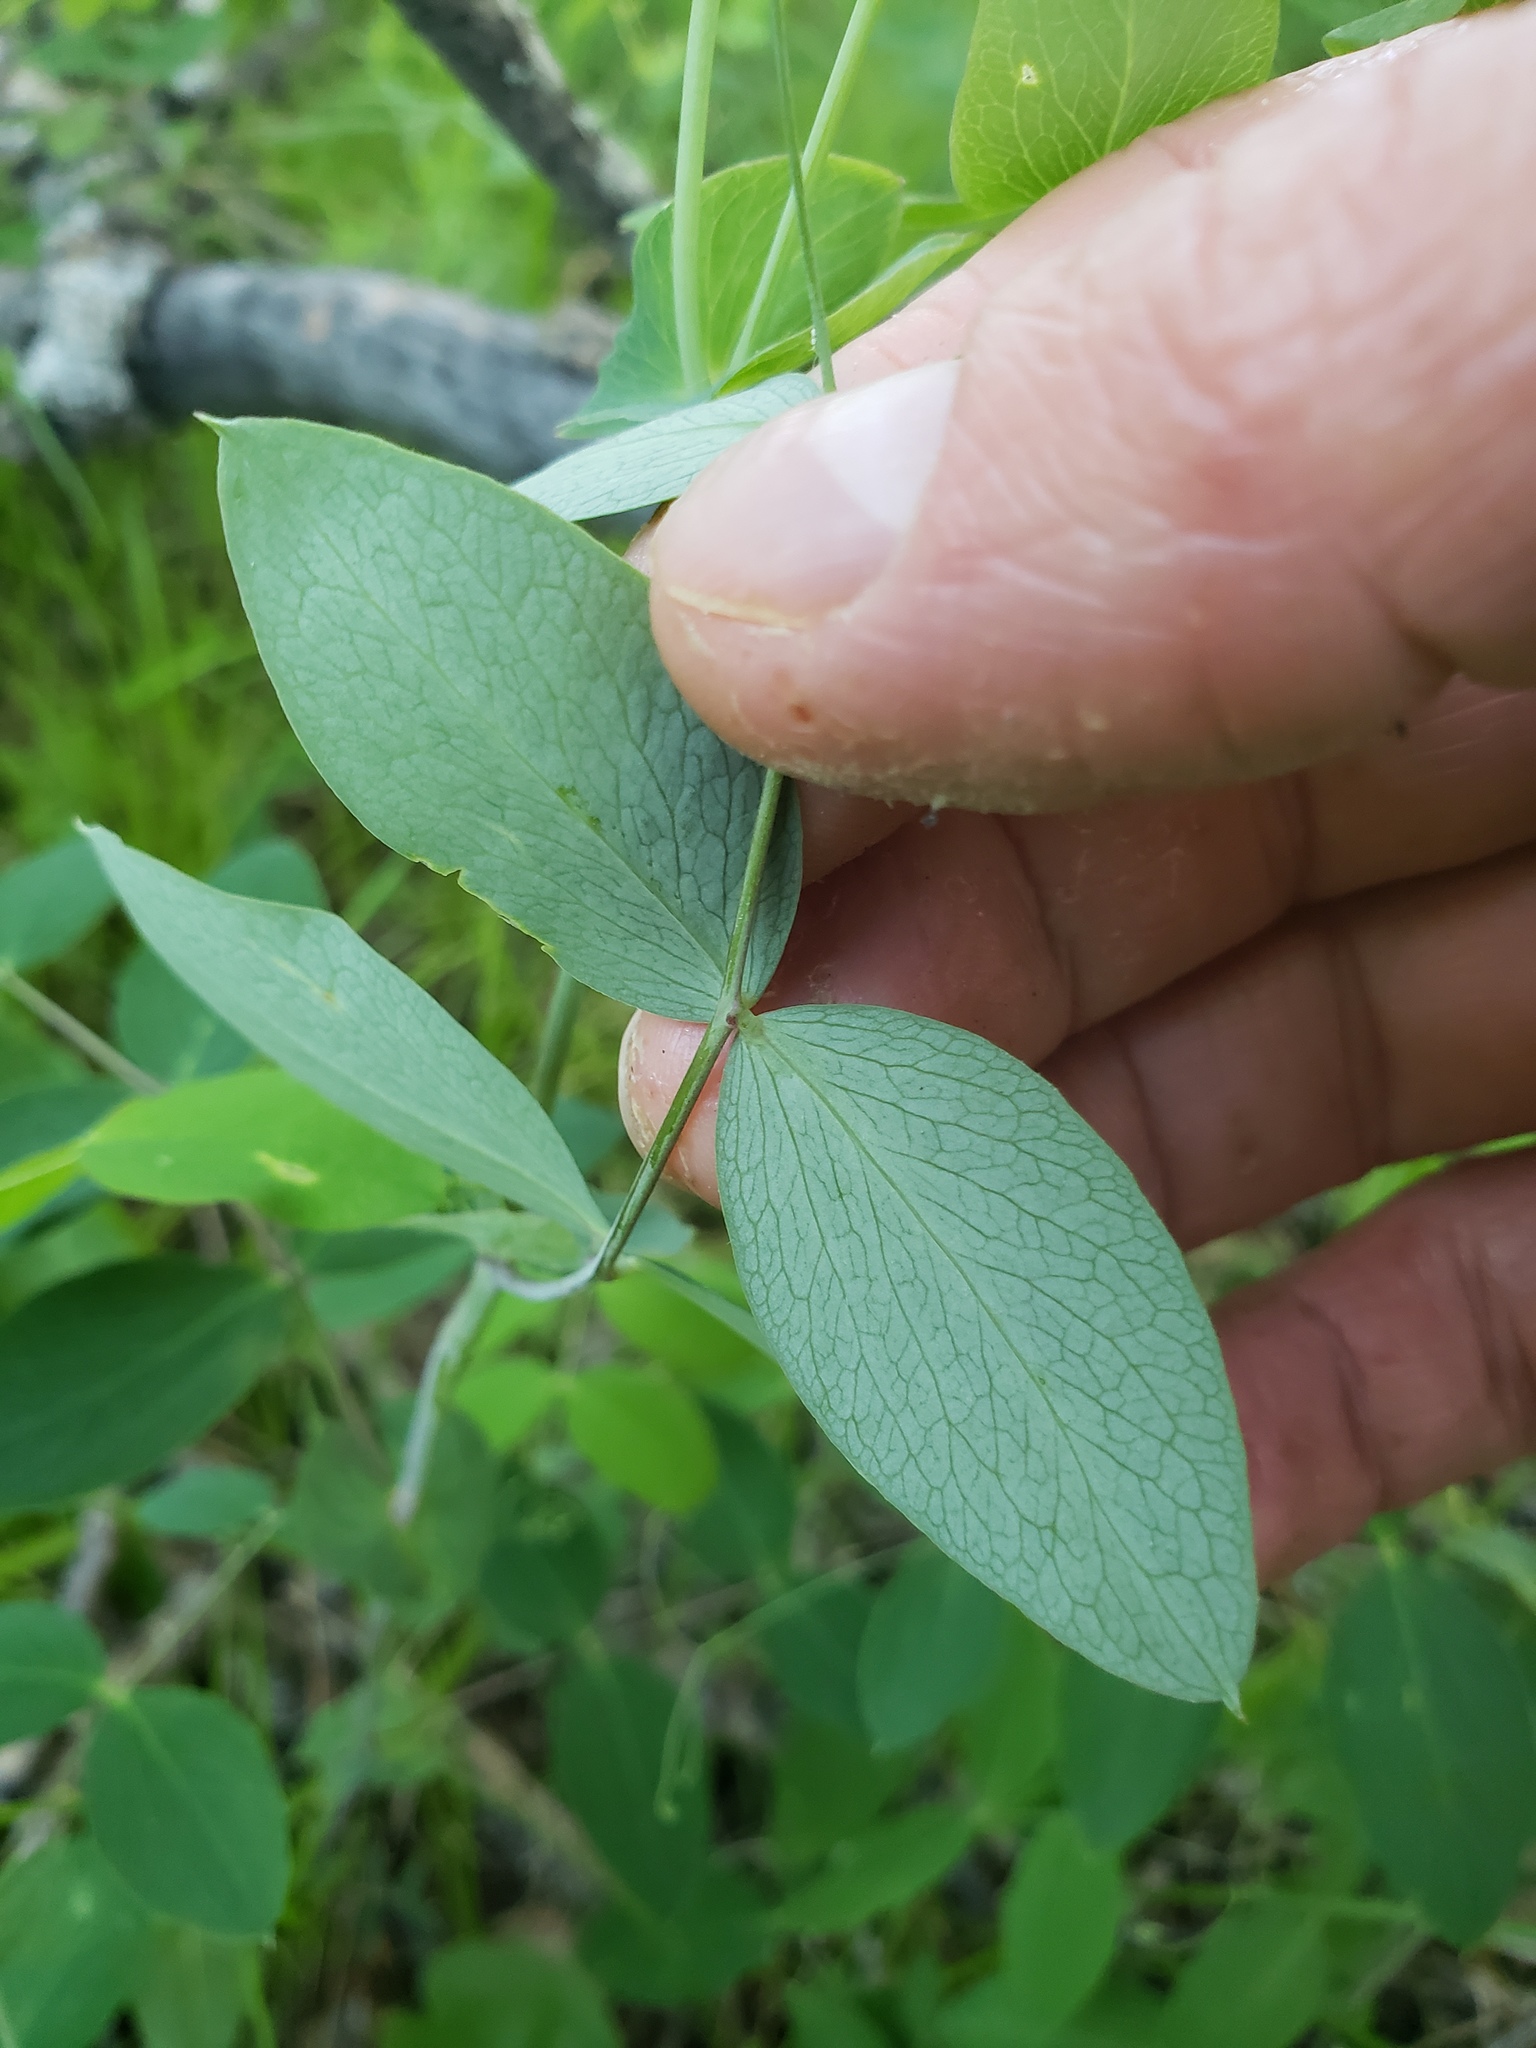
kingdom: Plantae
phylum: Tracheophyta
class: Magnoliopsida
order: Fabales
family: Fabaceae
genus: Lathyrus
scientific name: Lathyrus ochroleucus
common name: Pale vetchling
